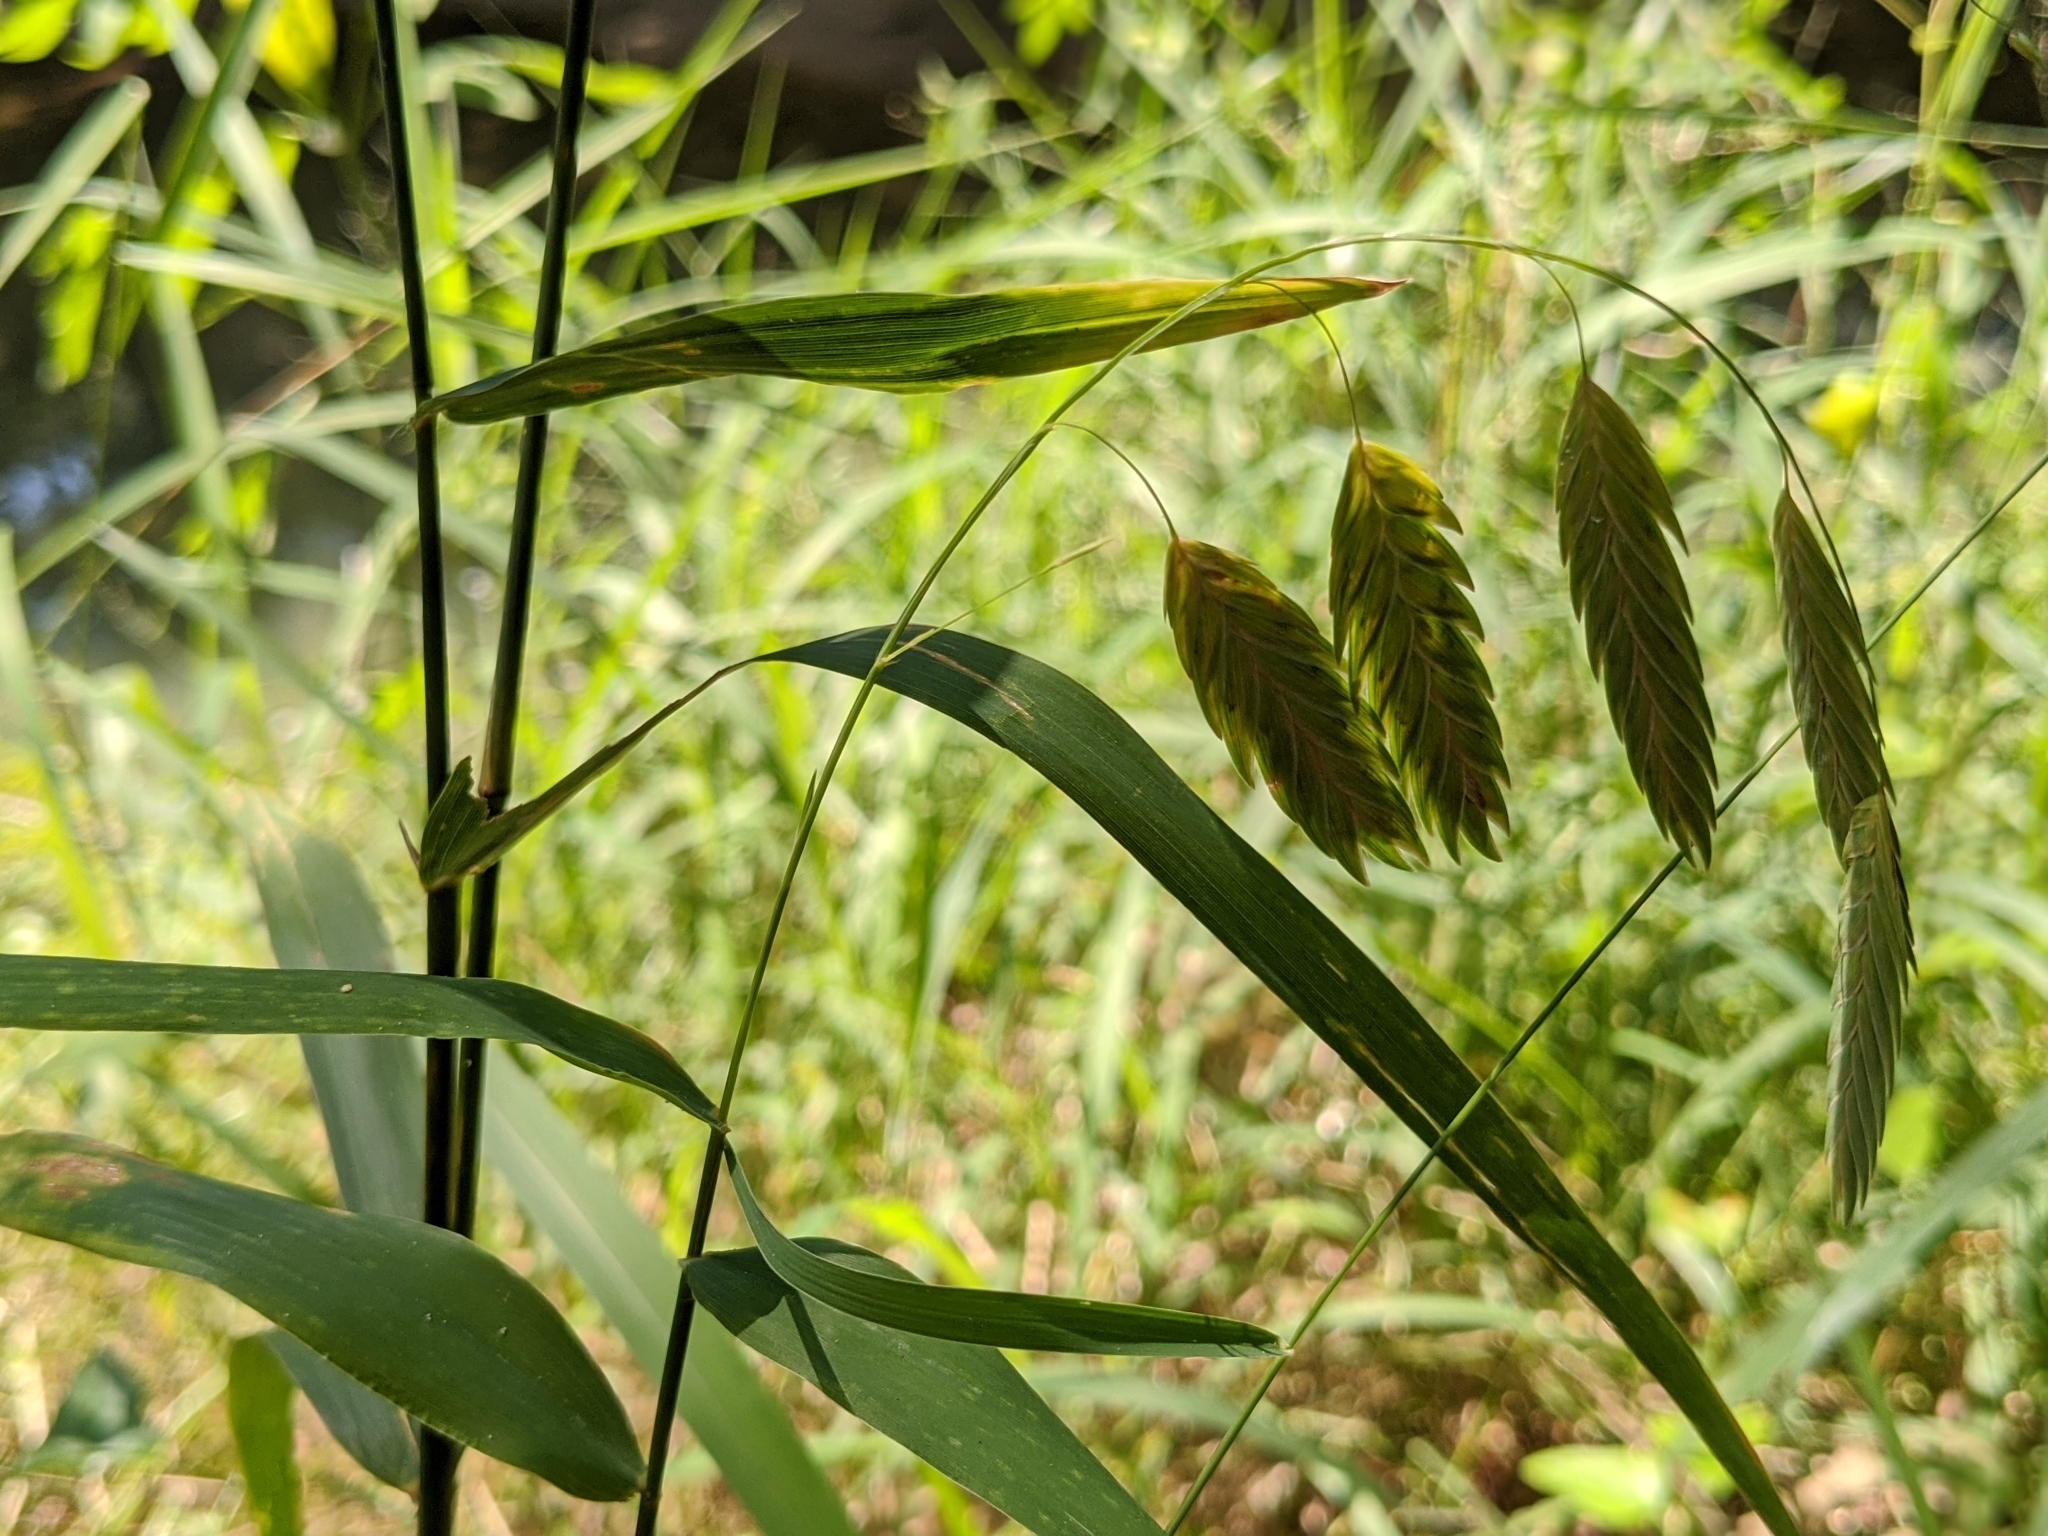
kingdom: Plantae
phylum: Tracheophyta
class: Liliopsida
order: Poales
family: Poaceae
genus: Chasmanthium
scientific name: Chasmanthium latifolium
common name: Broad-leaved chasmanthium
